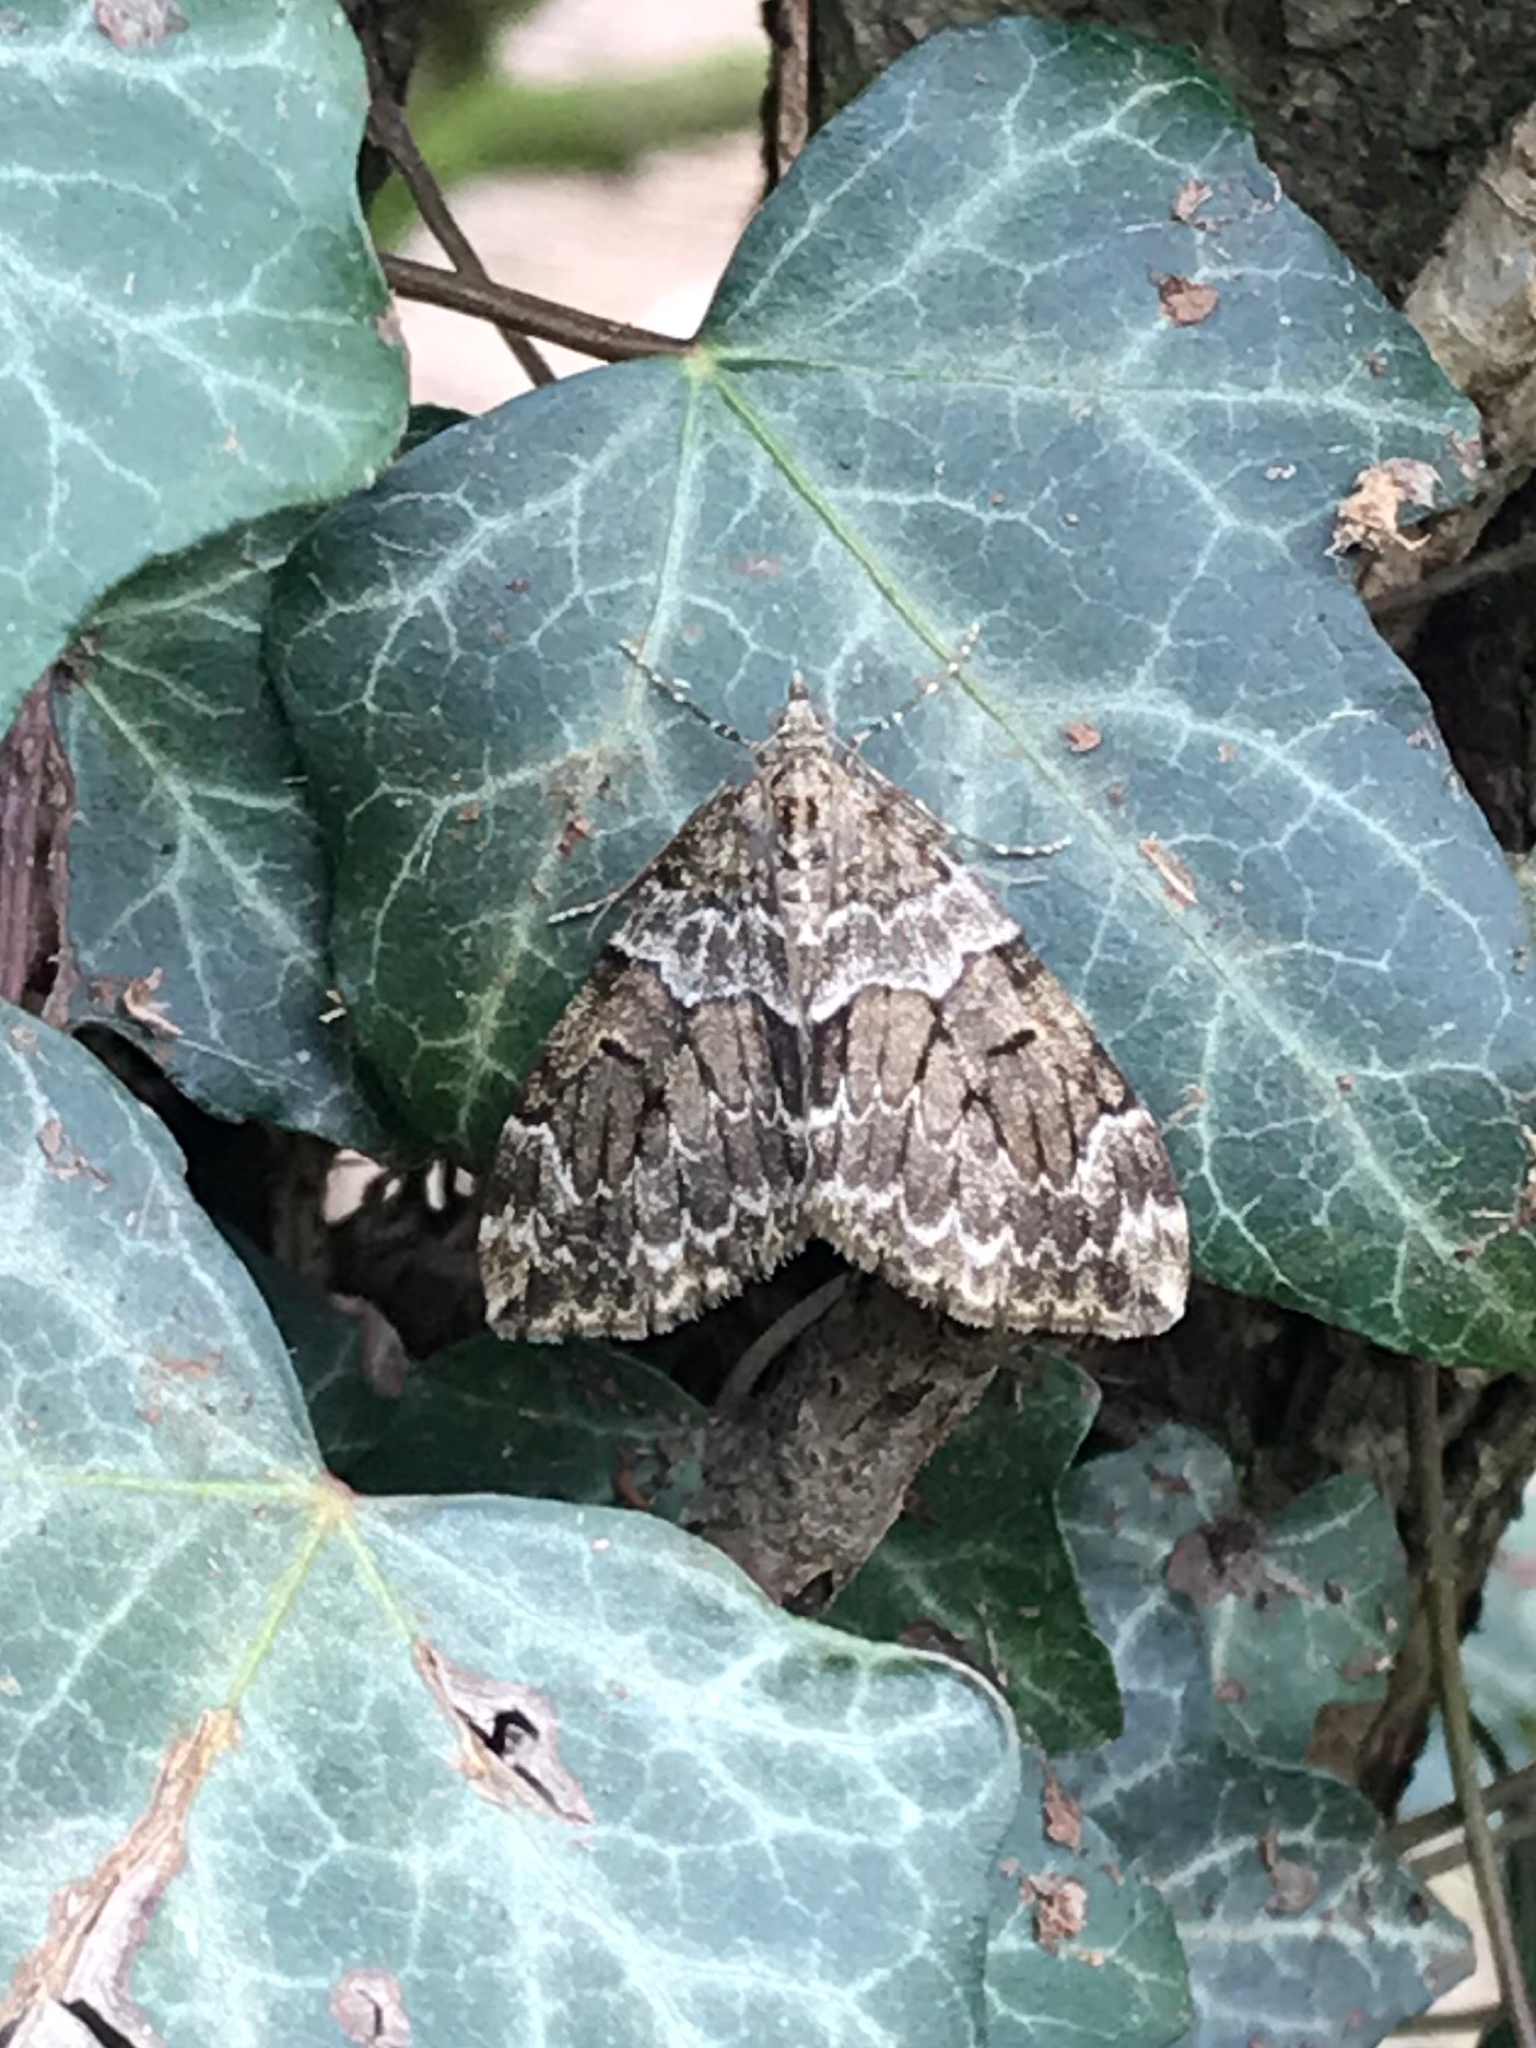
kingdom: Animalia
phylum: Arthropoda
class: Insecta
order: Lepidoptera
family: Geometridae
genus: Thera
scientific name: Thera britannica
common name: Spruce carpet
